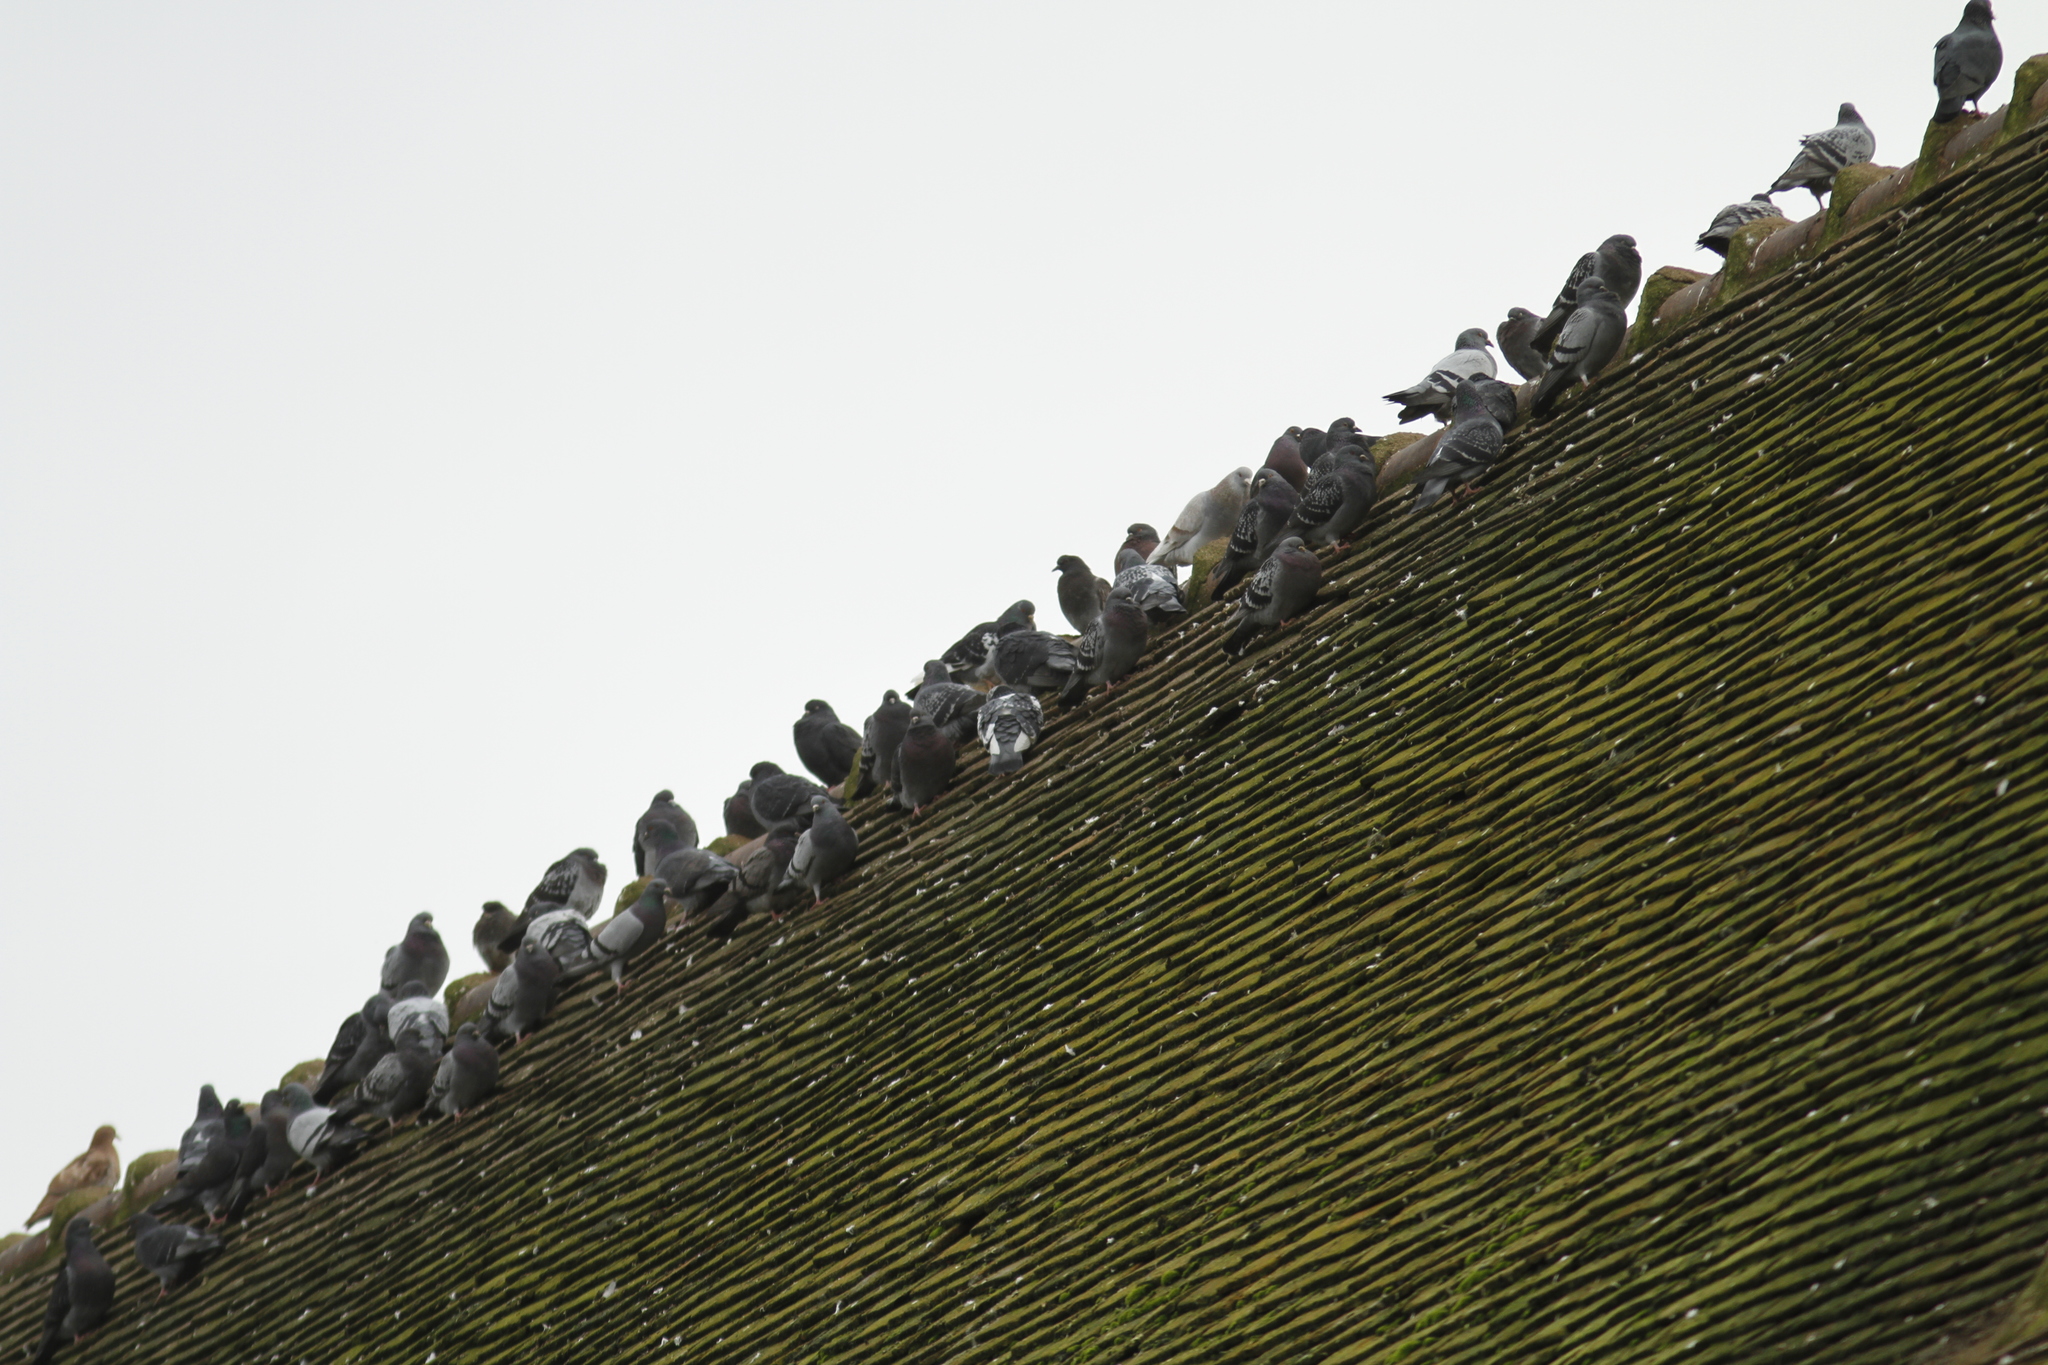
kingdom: Animalia
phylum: Chordata
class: Aves
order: Columbiformes
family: Columbidae
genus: Columba
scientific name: Columba livia
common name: Rock pigeon
